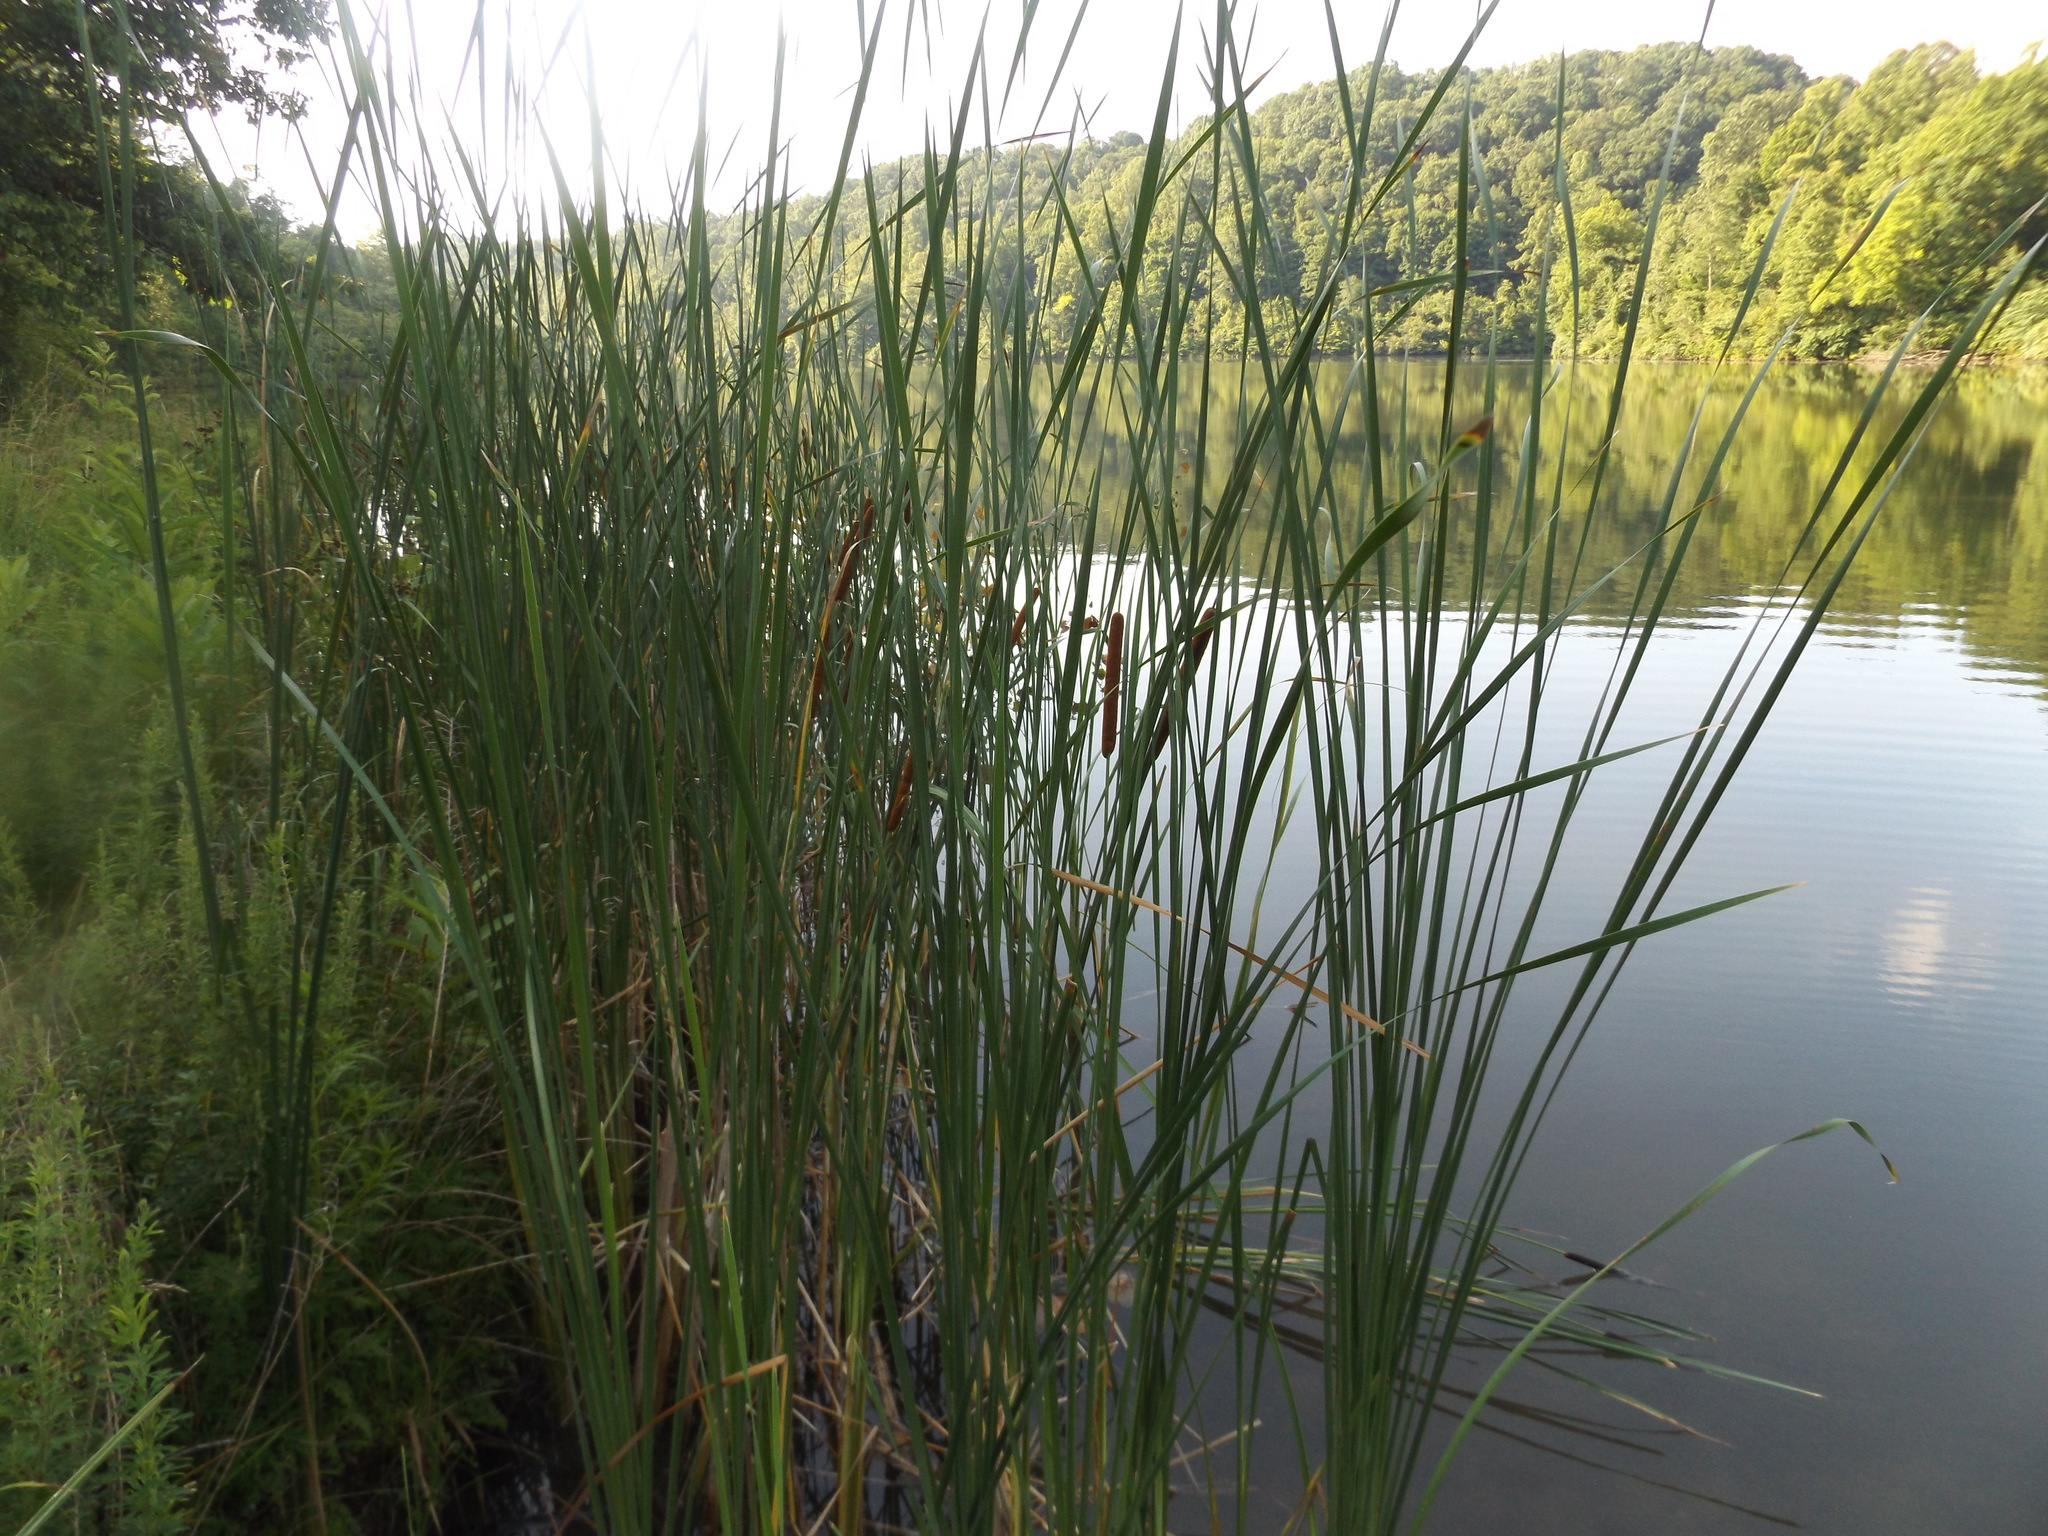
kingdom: Plantae
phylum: Tracheophyta
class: Liliopsida
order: Poales
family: Typhaceae
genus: Typha
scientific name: Typha angustifolia
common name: Lesser bulrush
